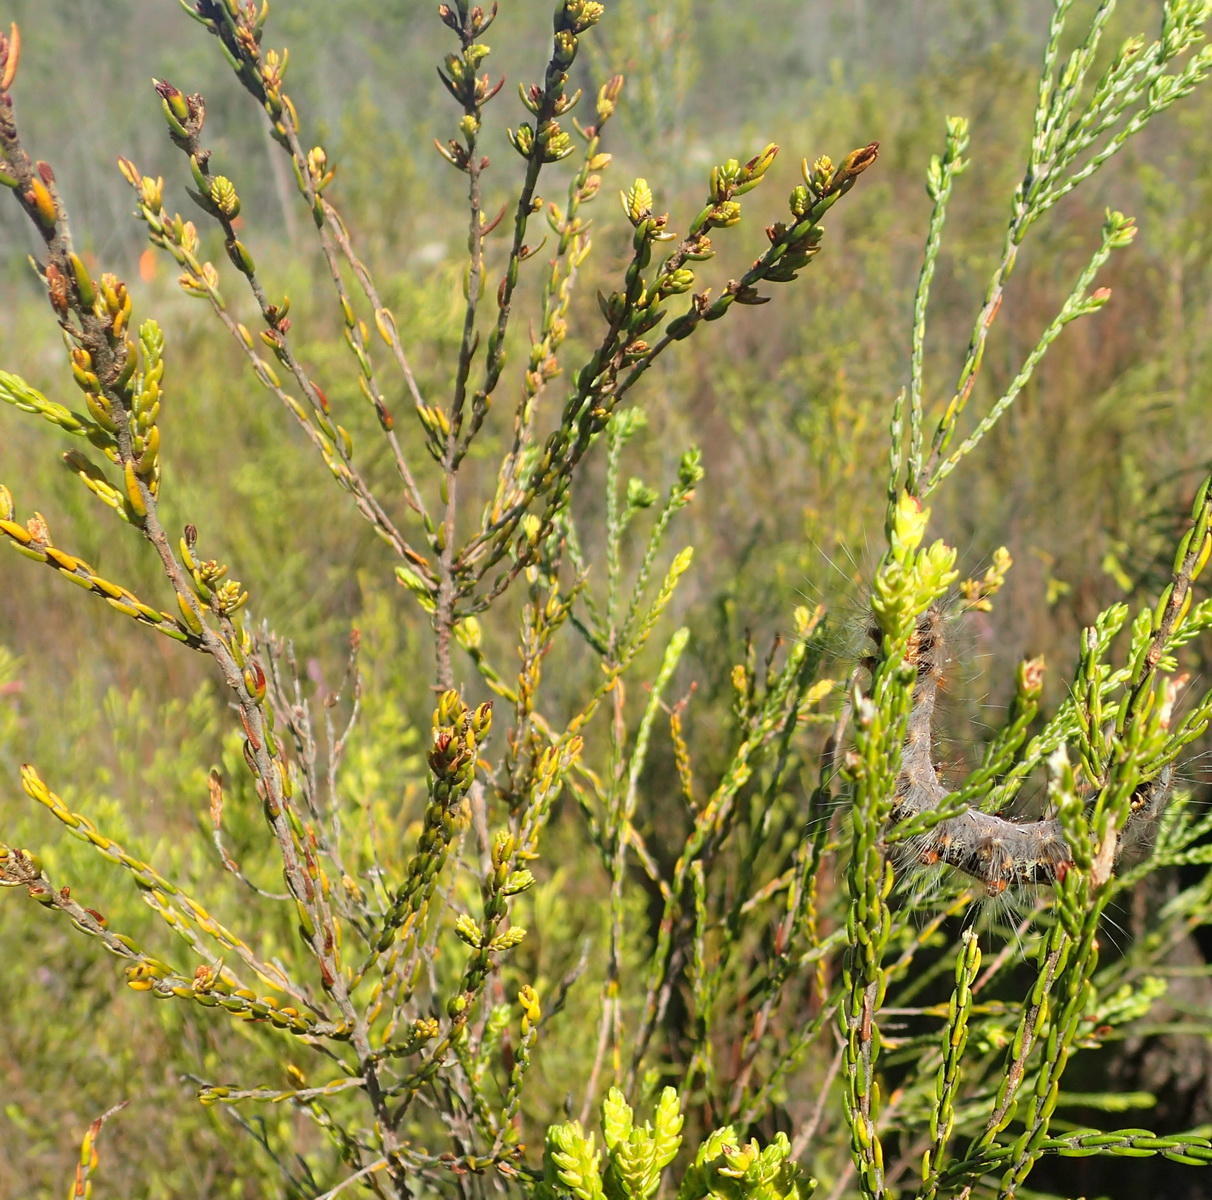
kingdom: Animalia
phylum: Arthropoda
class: Insecta
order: Lepidoptera
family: Lasiocampidae
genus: Streblote
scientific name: Streblote cristata
